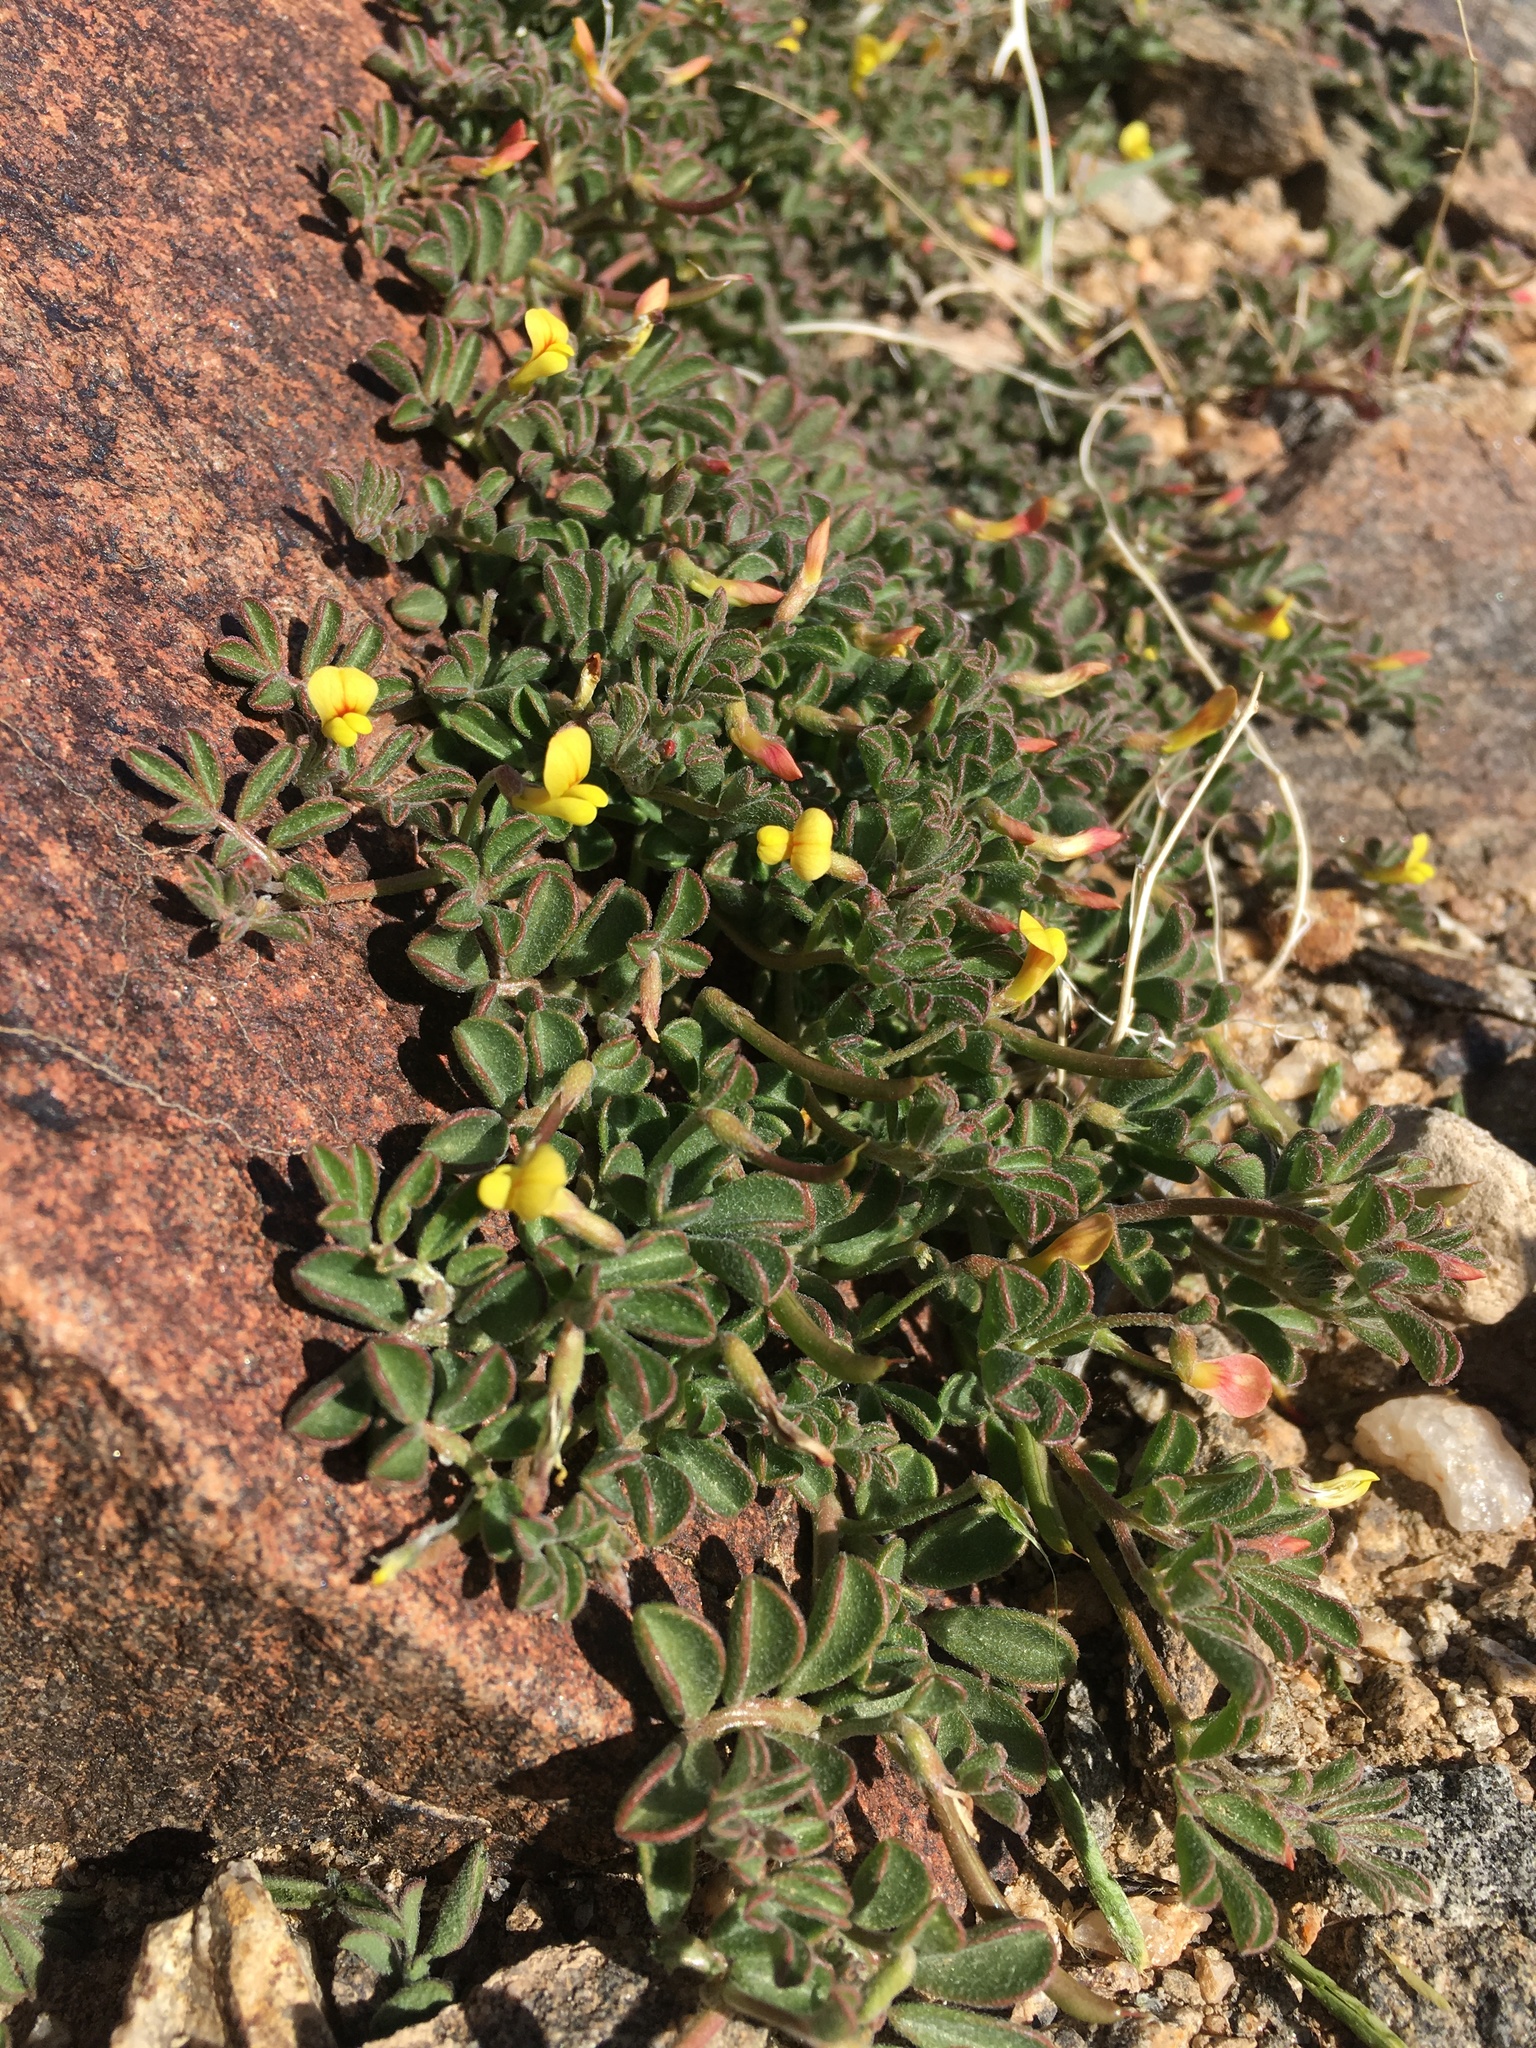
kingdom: Plantae
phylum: Tracheophyta
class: Magnoliopsida
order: Fabales
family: Fabaceae
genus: Acmispon
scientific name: Acmispon strigosus
